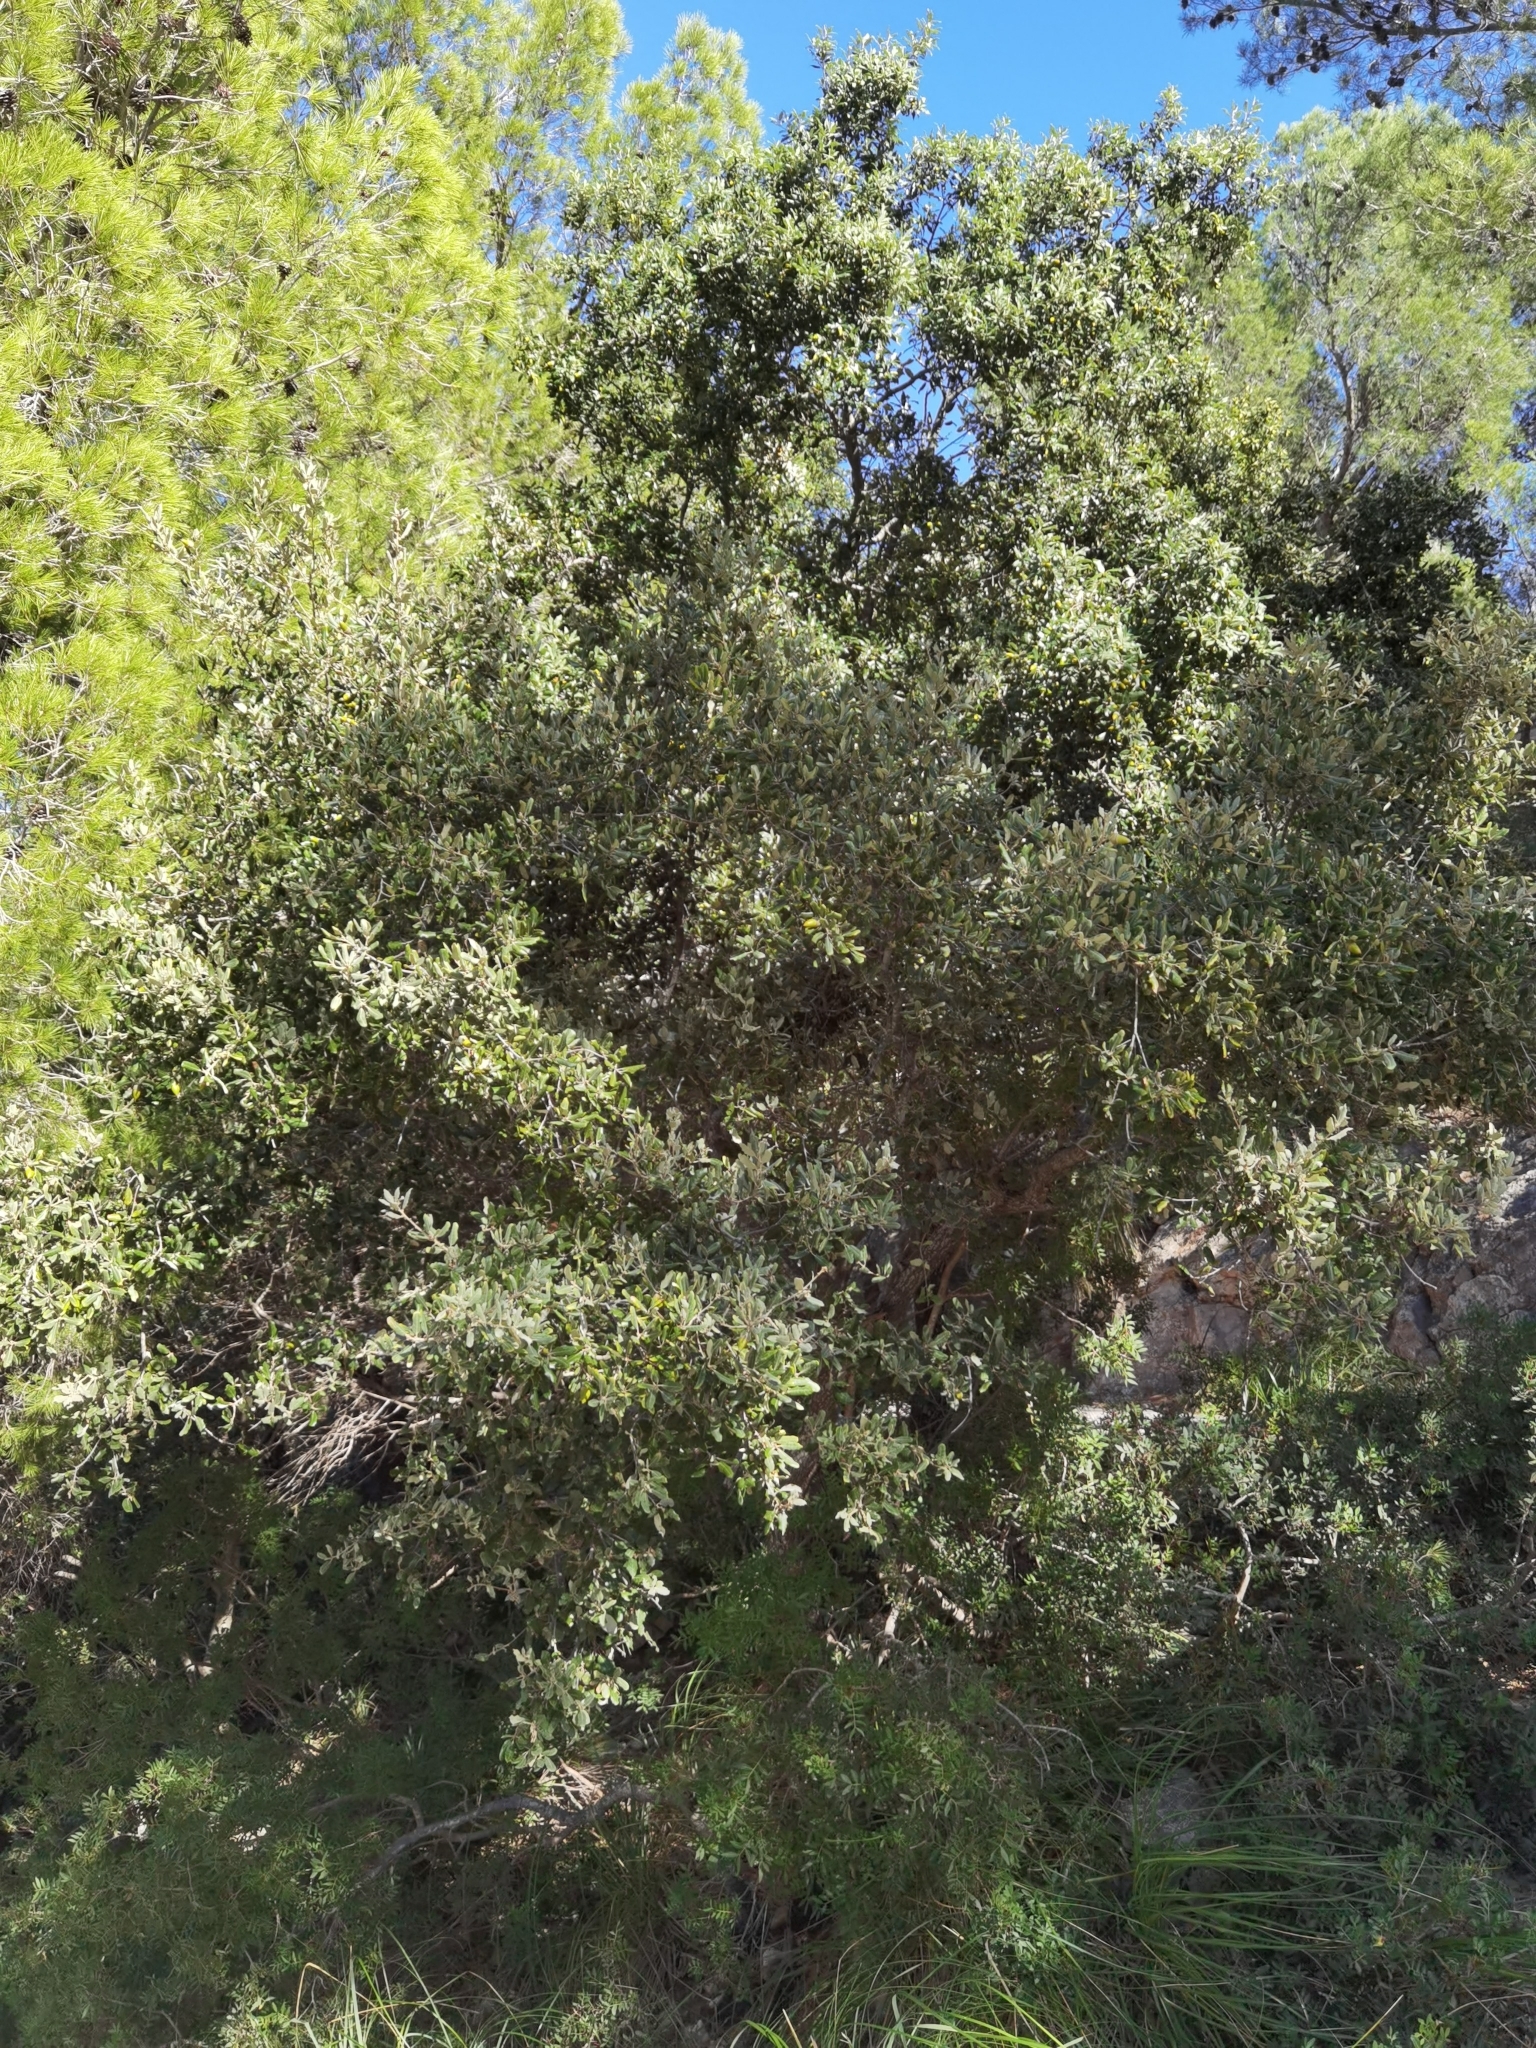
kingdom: Plantae
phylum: Tracheophyta
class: Magnoliopsida
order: Fagales
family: Fagaceae
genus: Quercus
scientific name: Quercus ilex
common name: Evergreen oak
